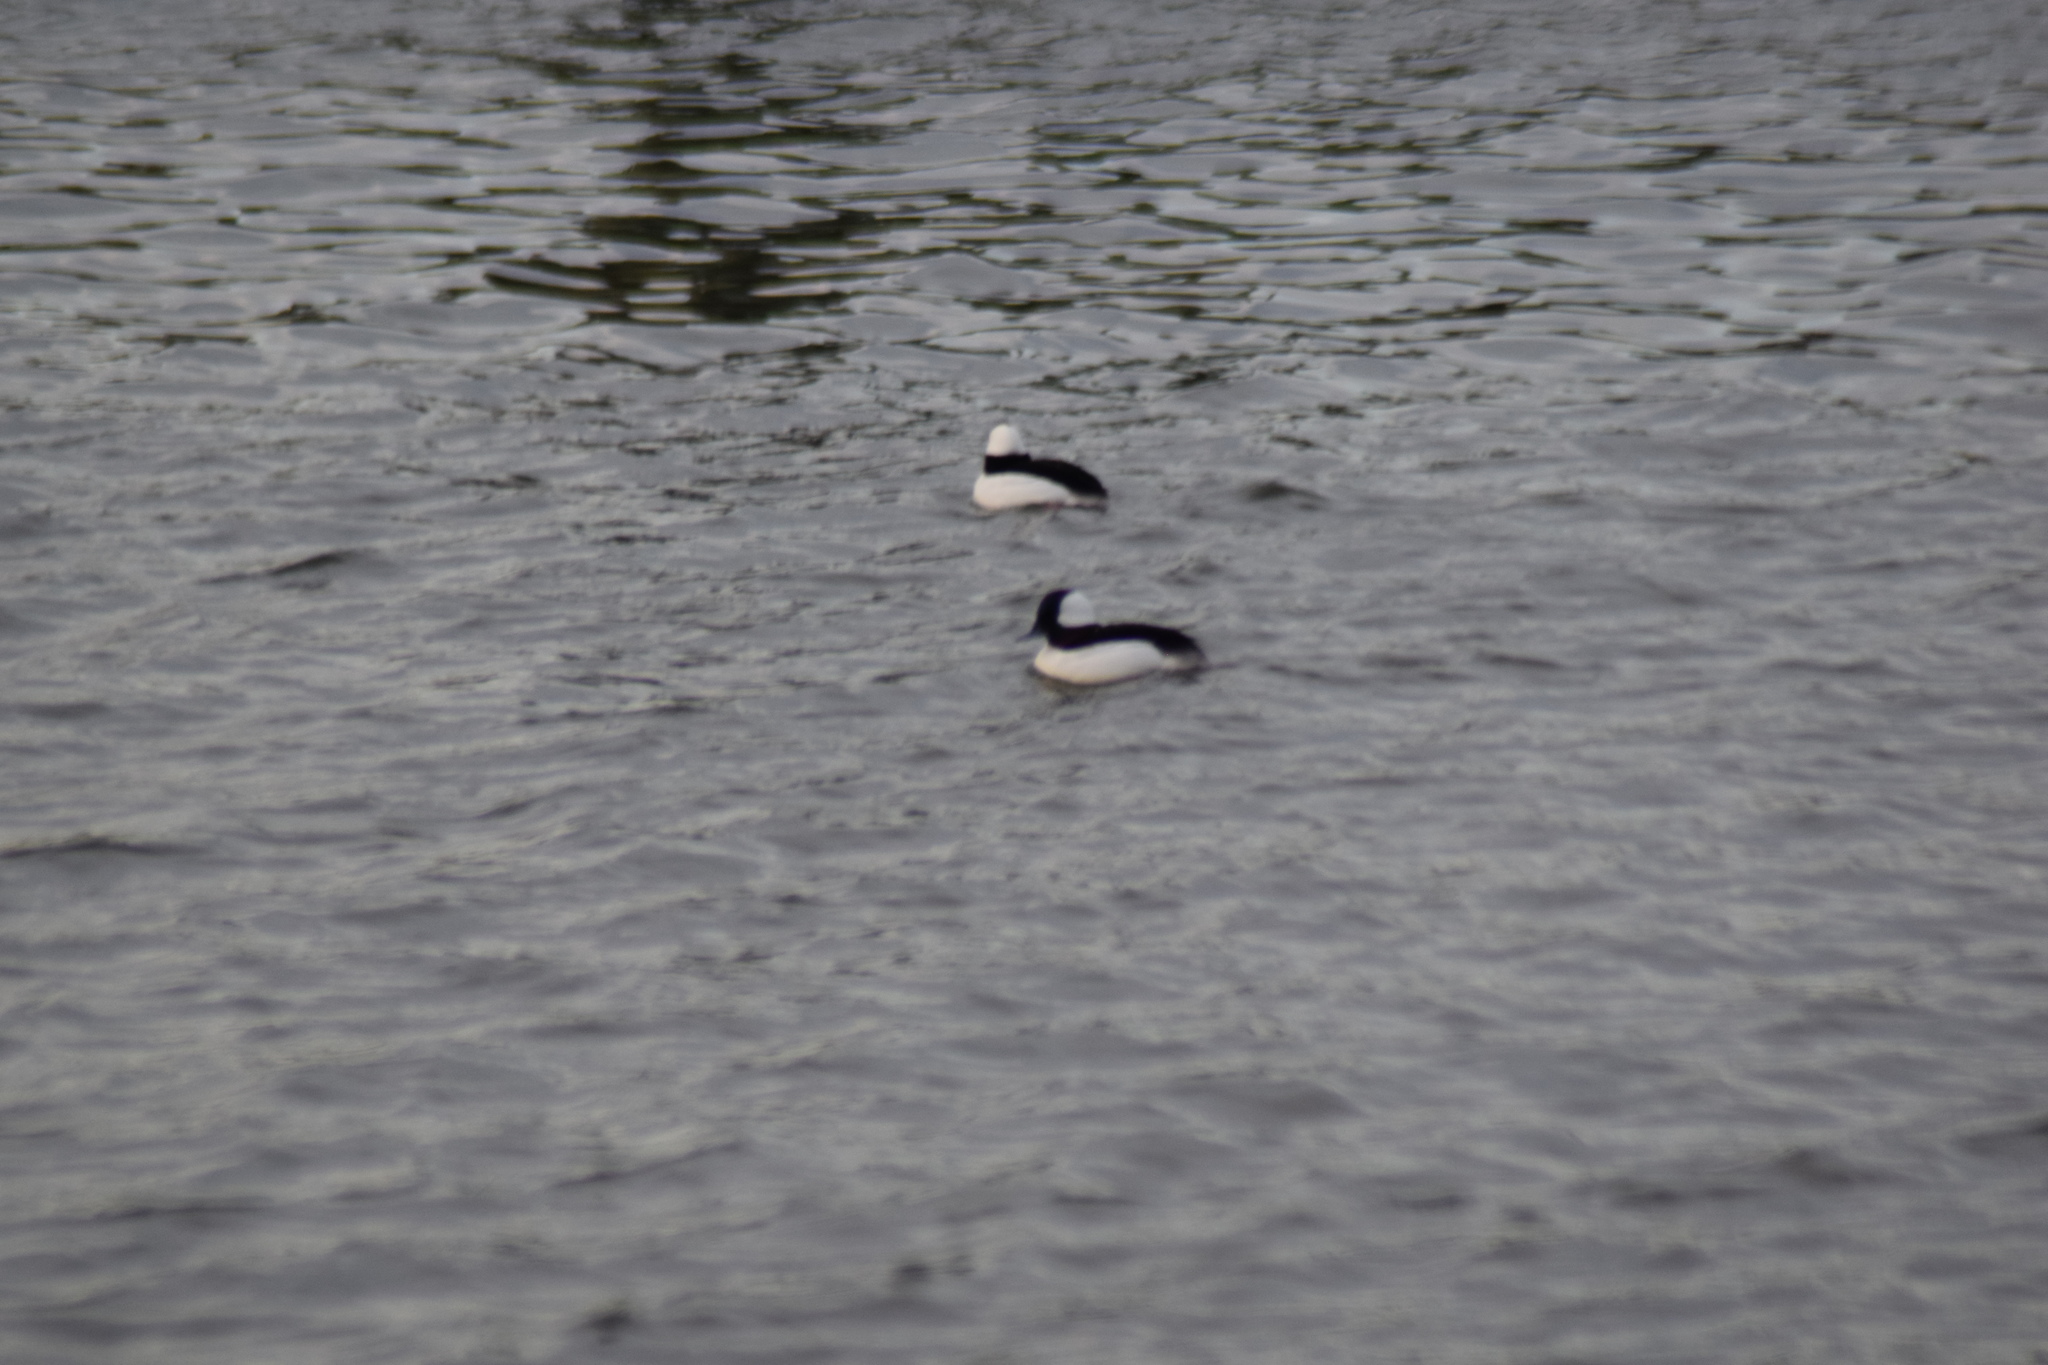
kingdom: Animalia
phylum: Chordata
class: Aves
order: Anseriformes
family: Anatidae
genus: Bucephala
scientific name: Bucephala albeola
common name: Bufflehead
